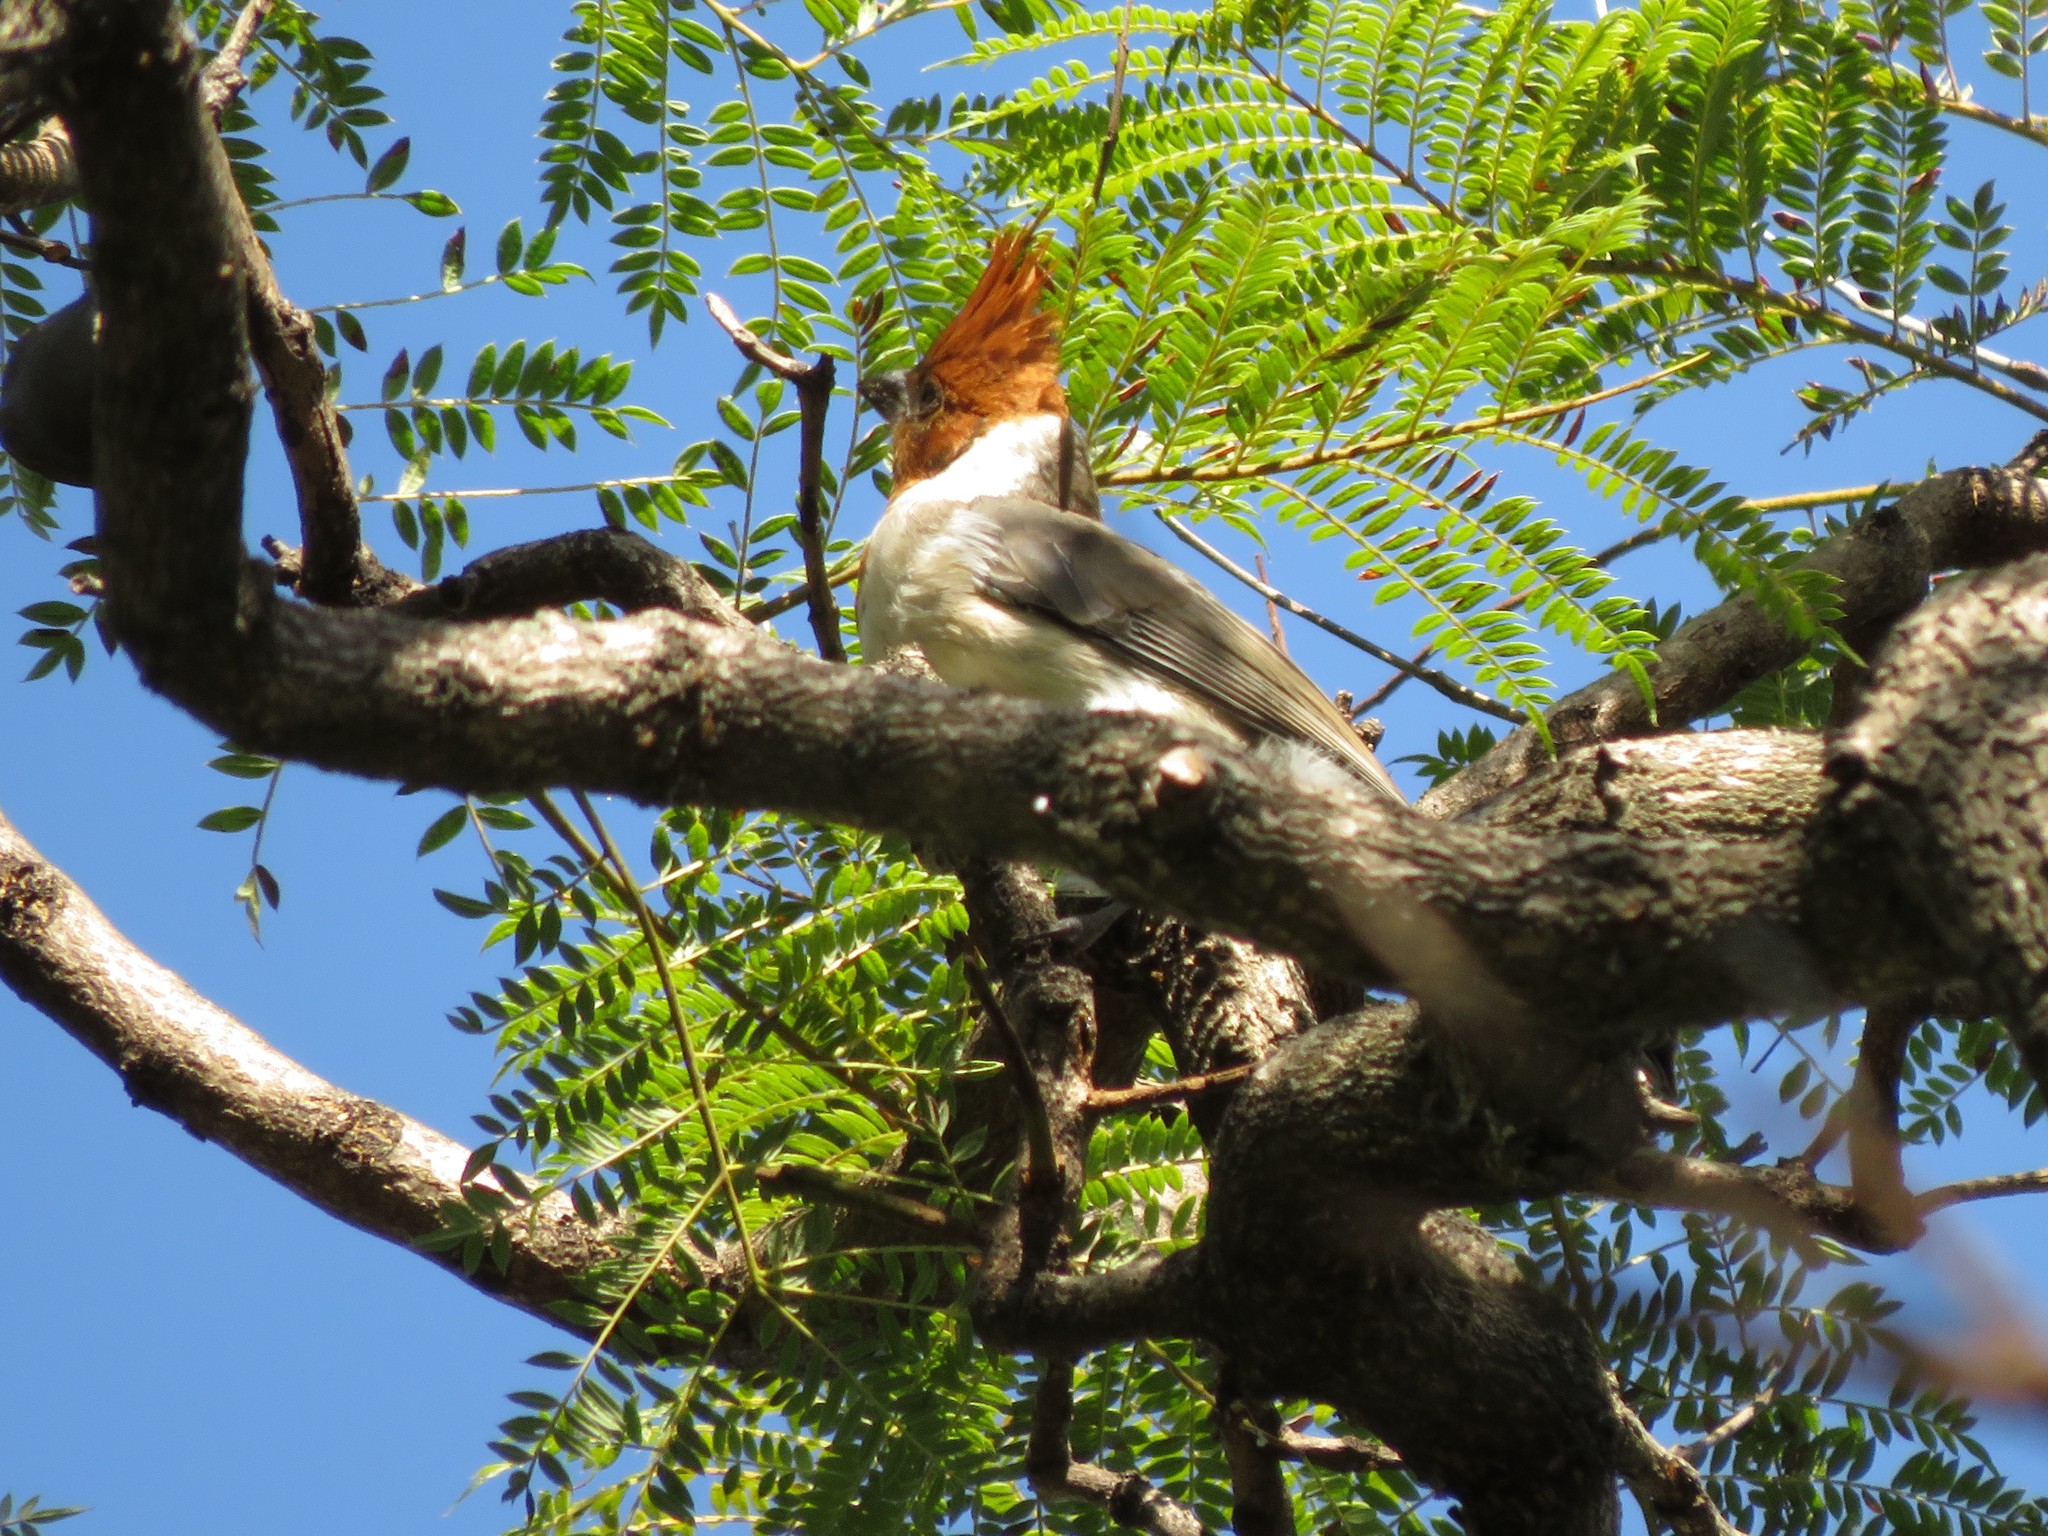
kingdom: Animalia
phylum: Chordata
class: Aves
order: Passeriformes
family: Thraupidae
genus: Paroaria
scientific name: Paroaria coronata
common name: Red-crested cardinal
